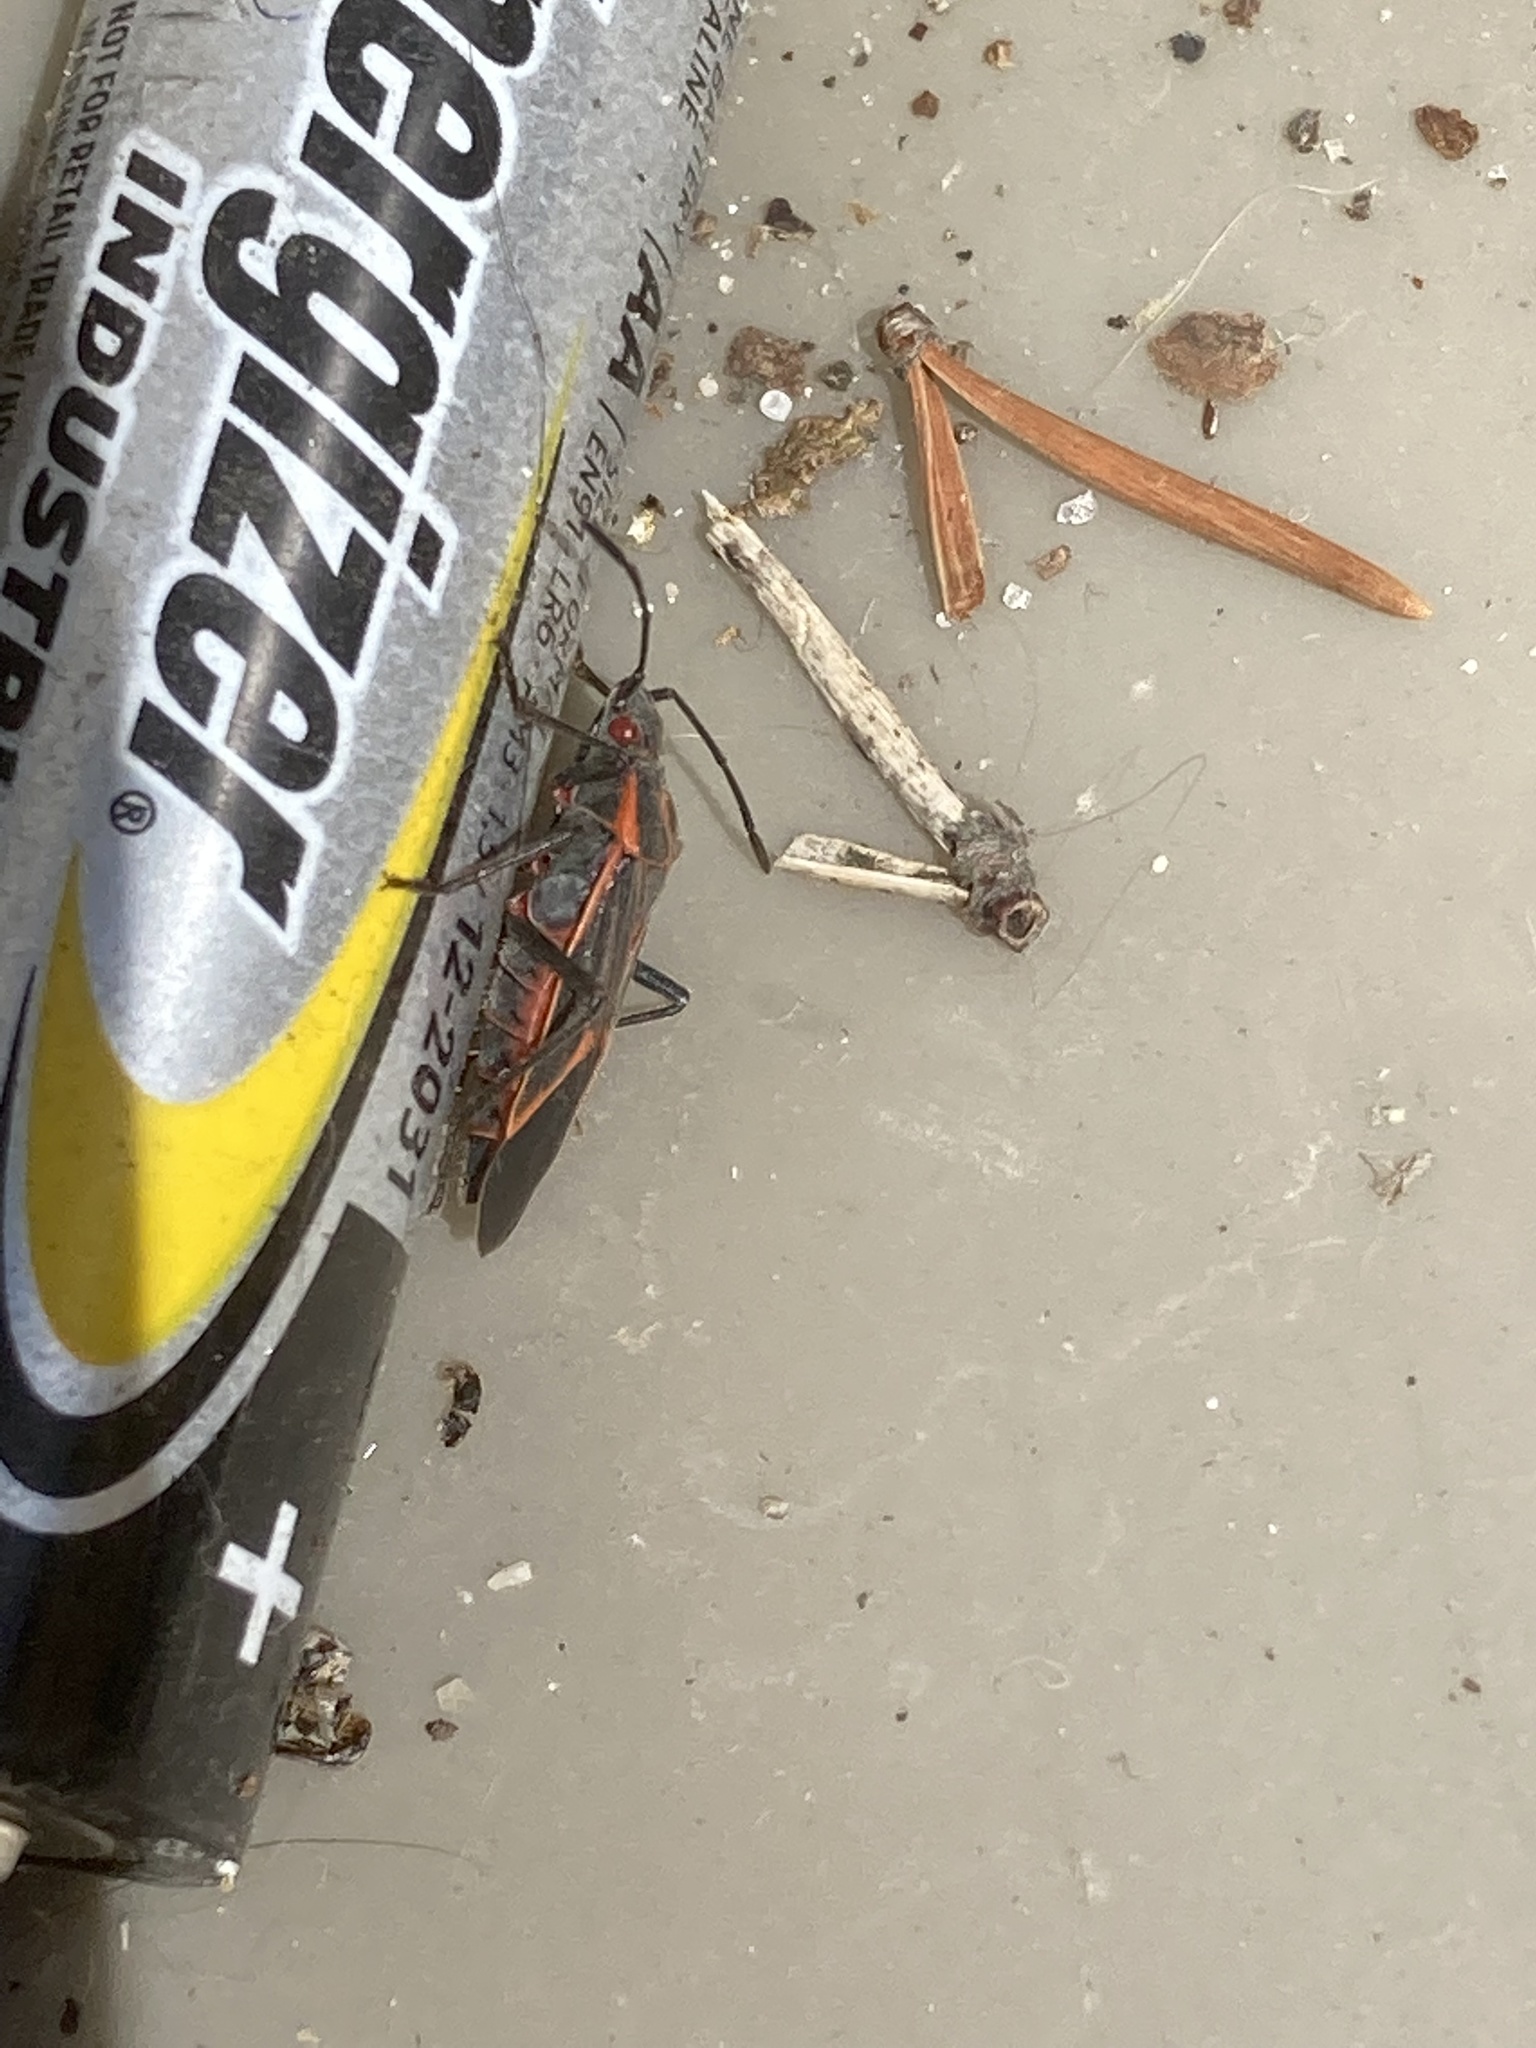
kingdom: Animalia
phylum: Arthropoda
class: Insecta
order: Hemiptera
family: Rhopalidae
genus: Boisea
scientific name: Boisea trivittata
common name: Boxelder bug
